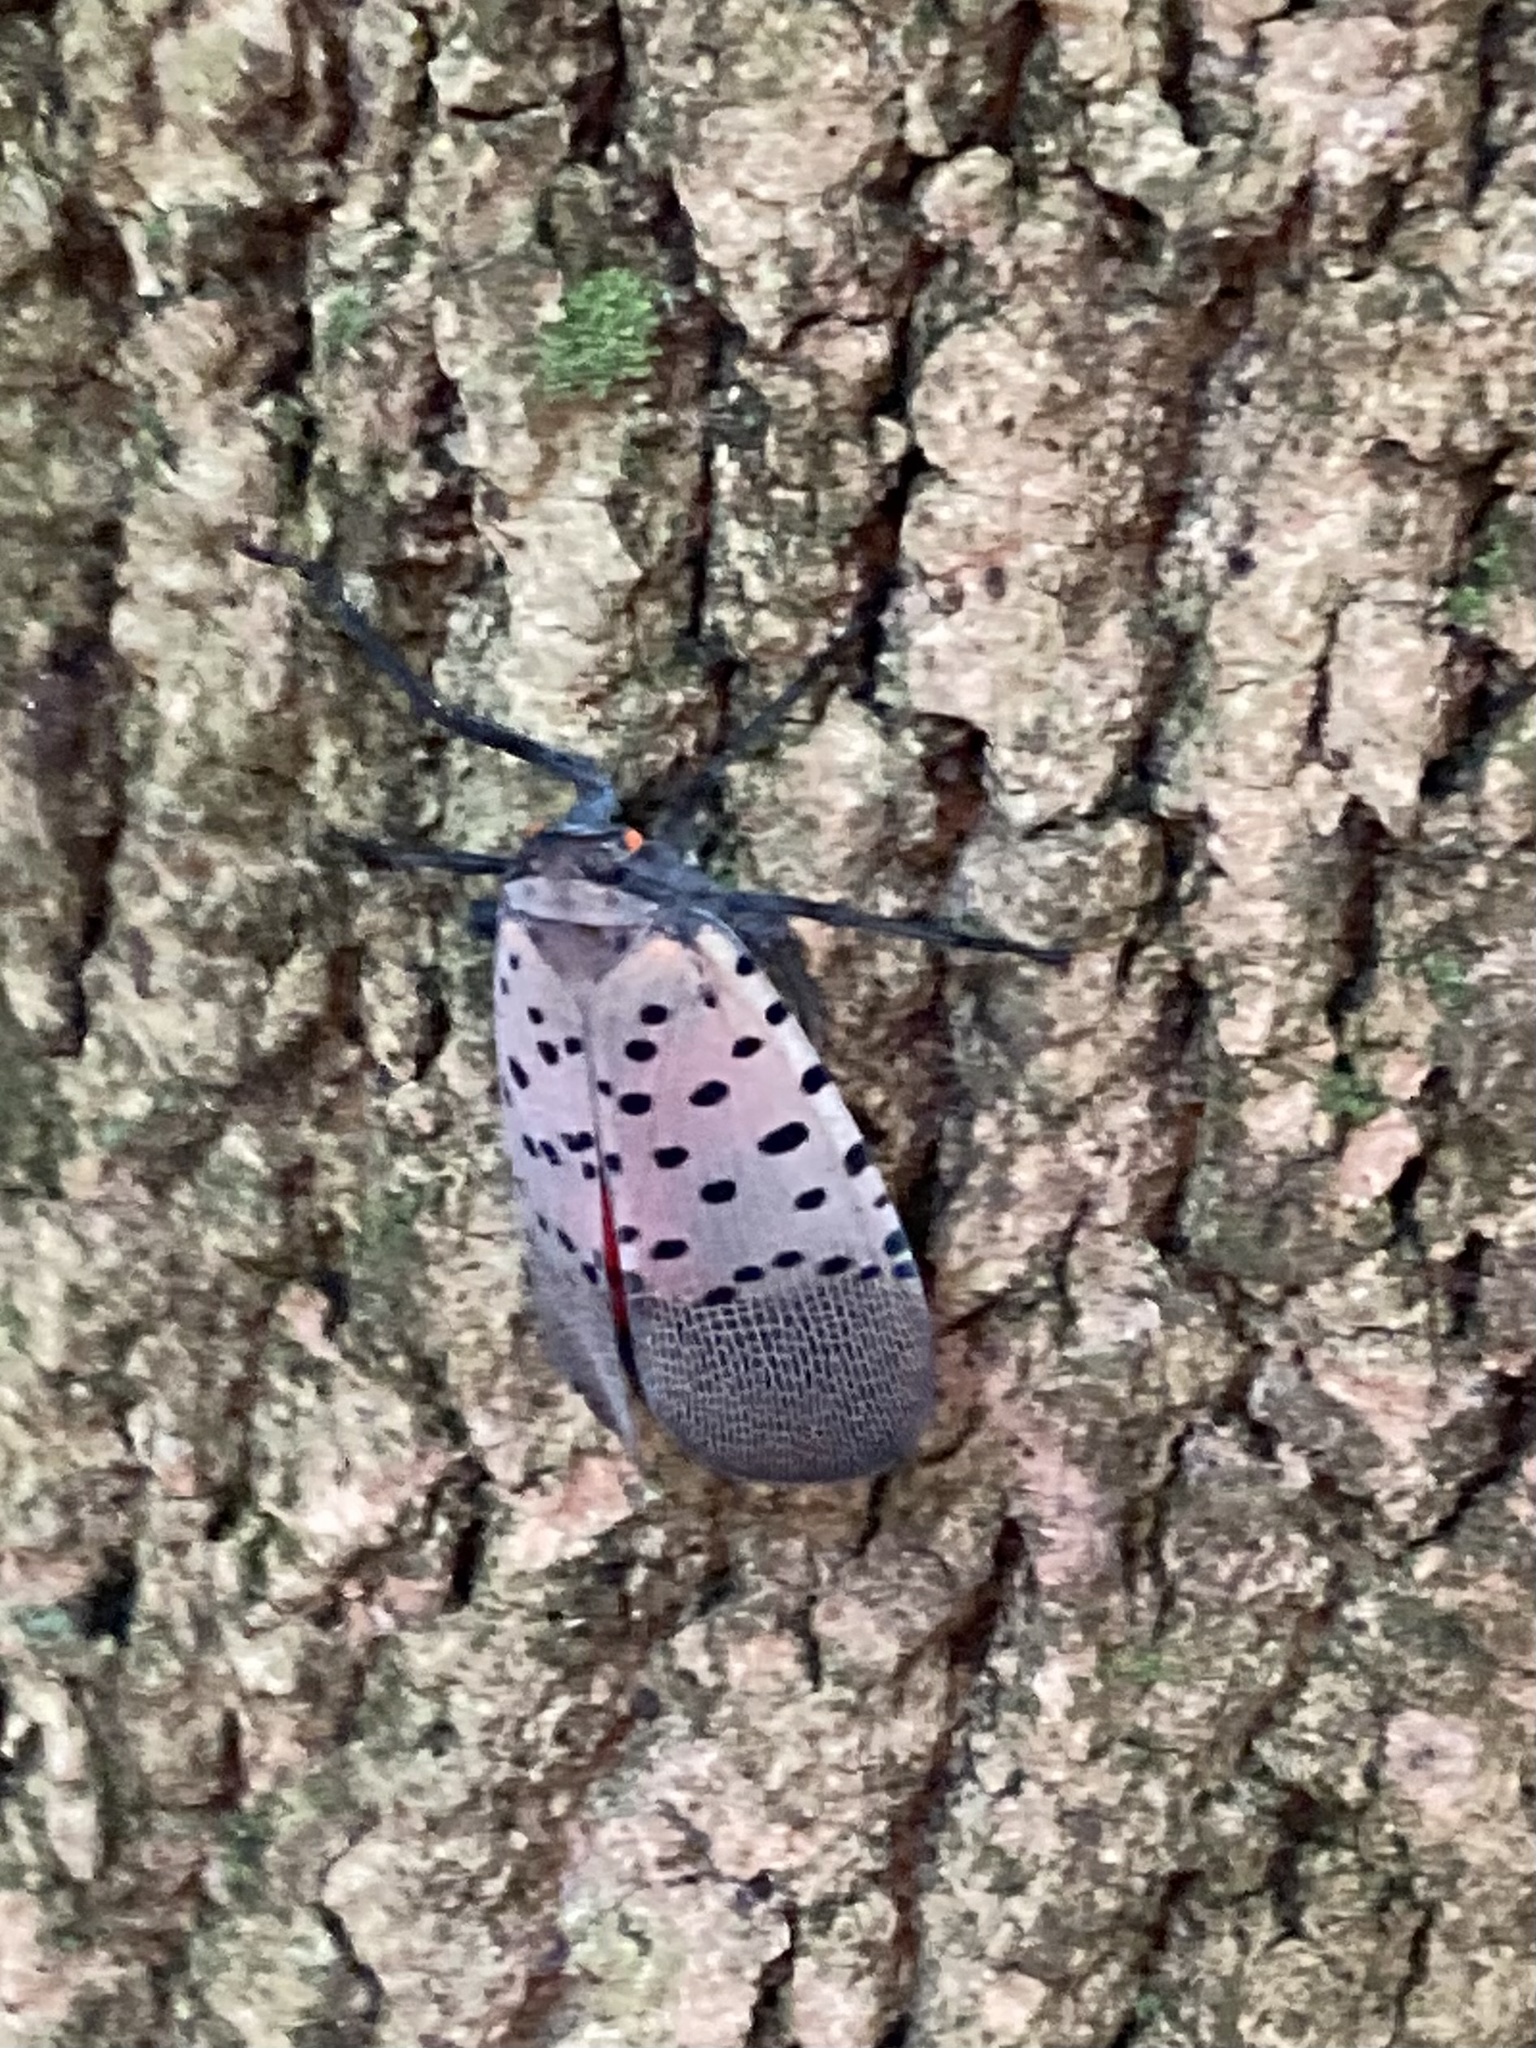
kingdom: Animalia
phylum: Arthropoda
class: Insecta
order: Hemiptera
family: Fulgoridae
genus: Lycorma
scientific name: Lycorma delicatula
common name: Spotted lanternfly
